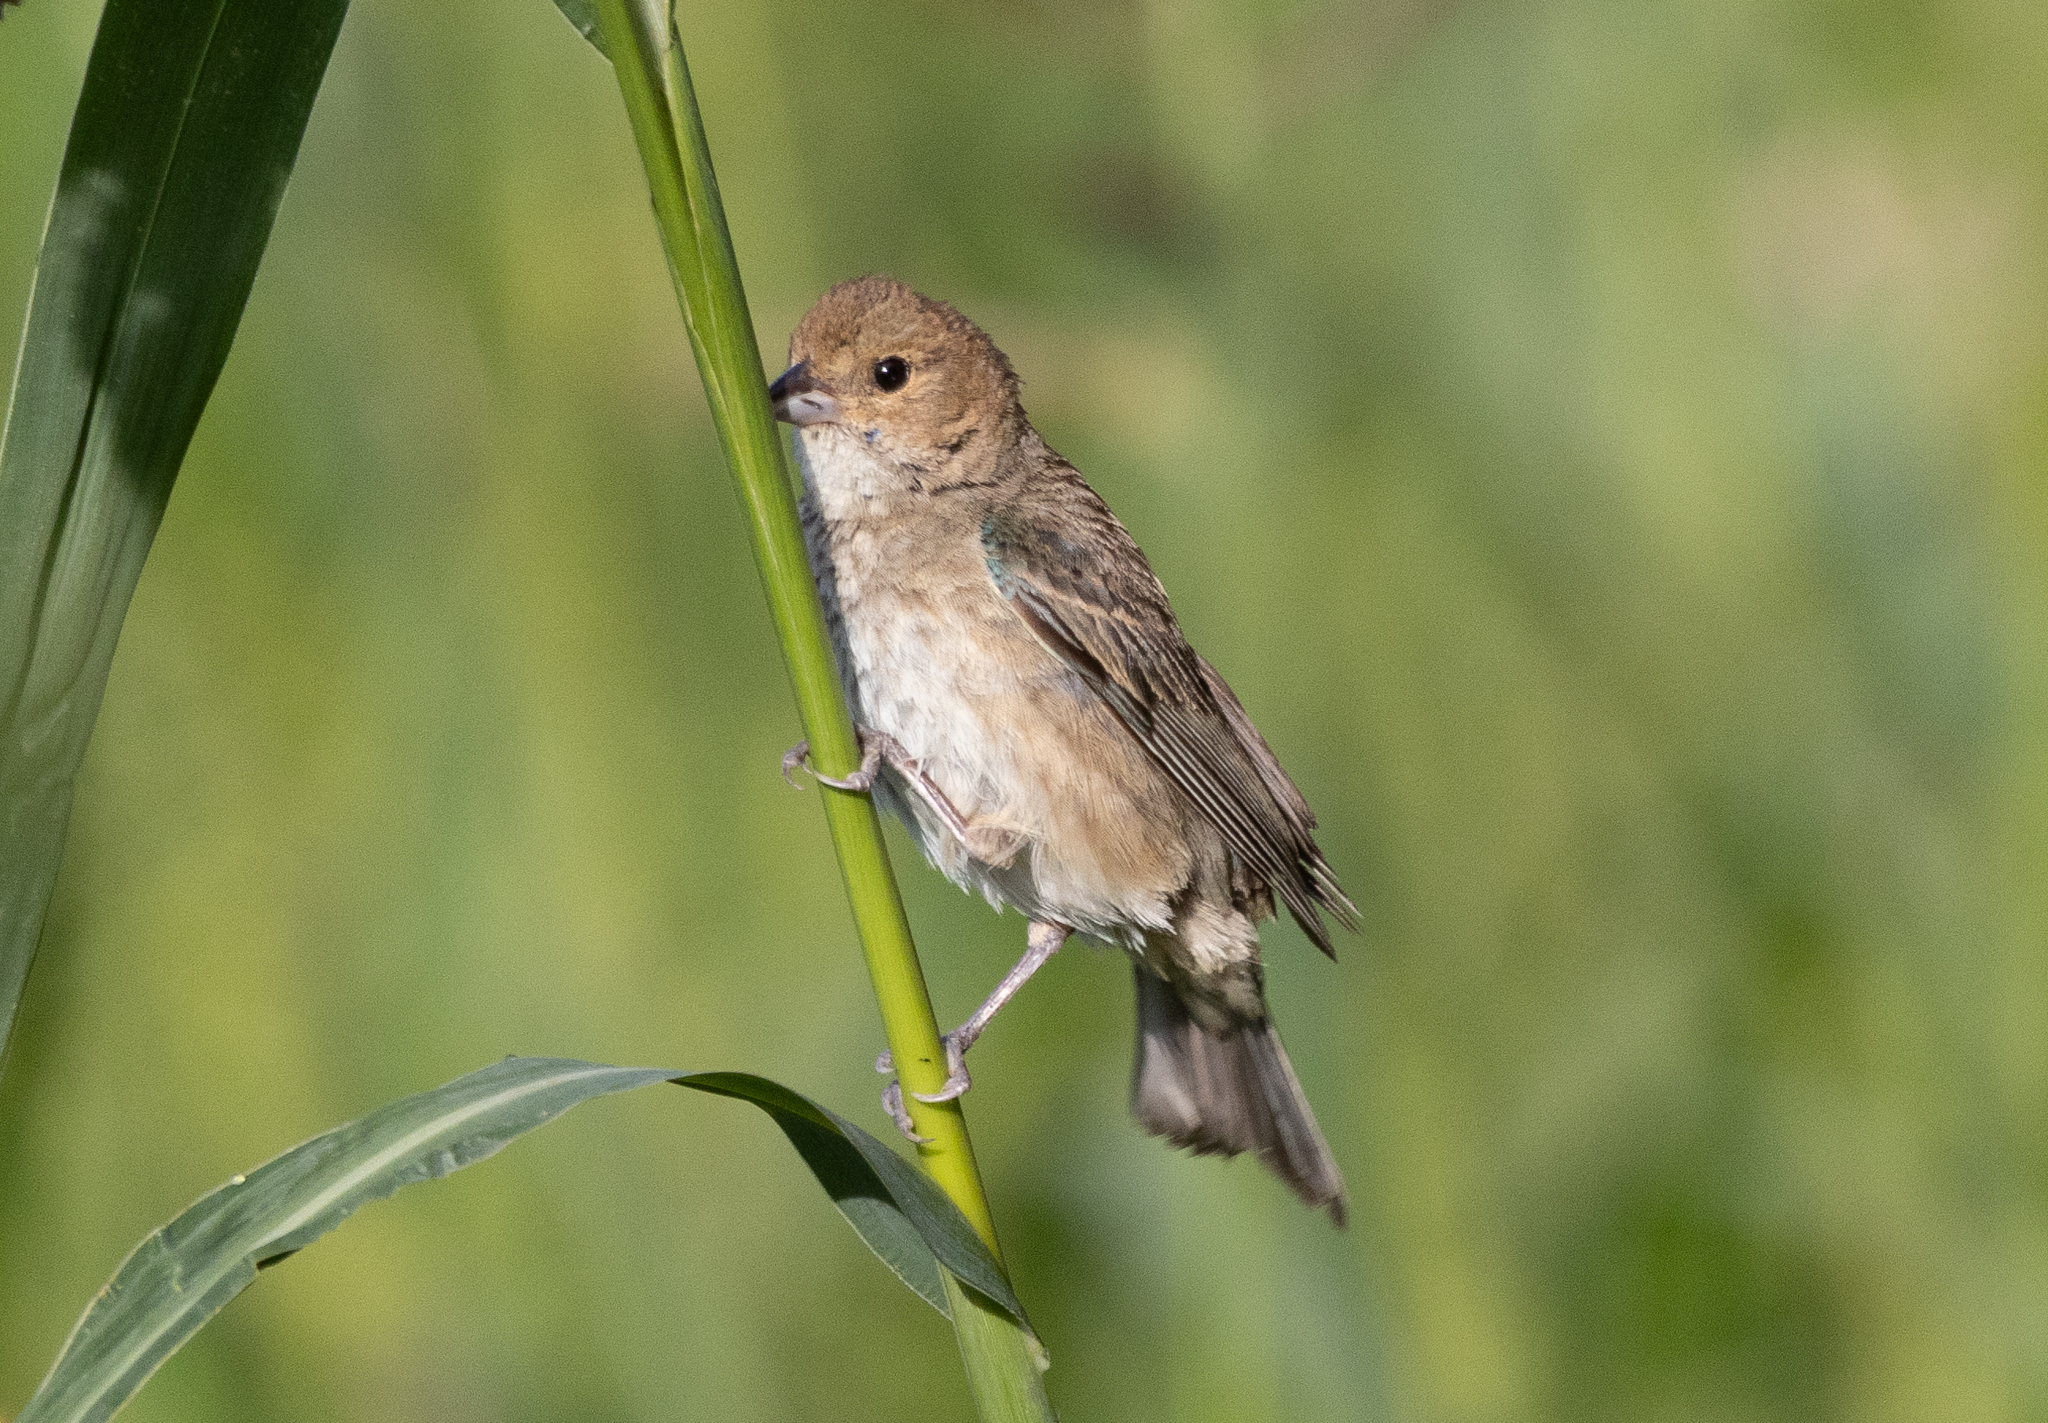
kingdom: Animalia
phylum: Chordata
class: Aves
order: Passeriformes
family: Cardinalidae
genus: Passerina
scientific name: Passerina cyanea
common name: Indigo bunting
